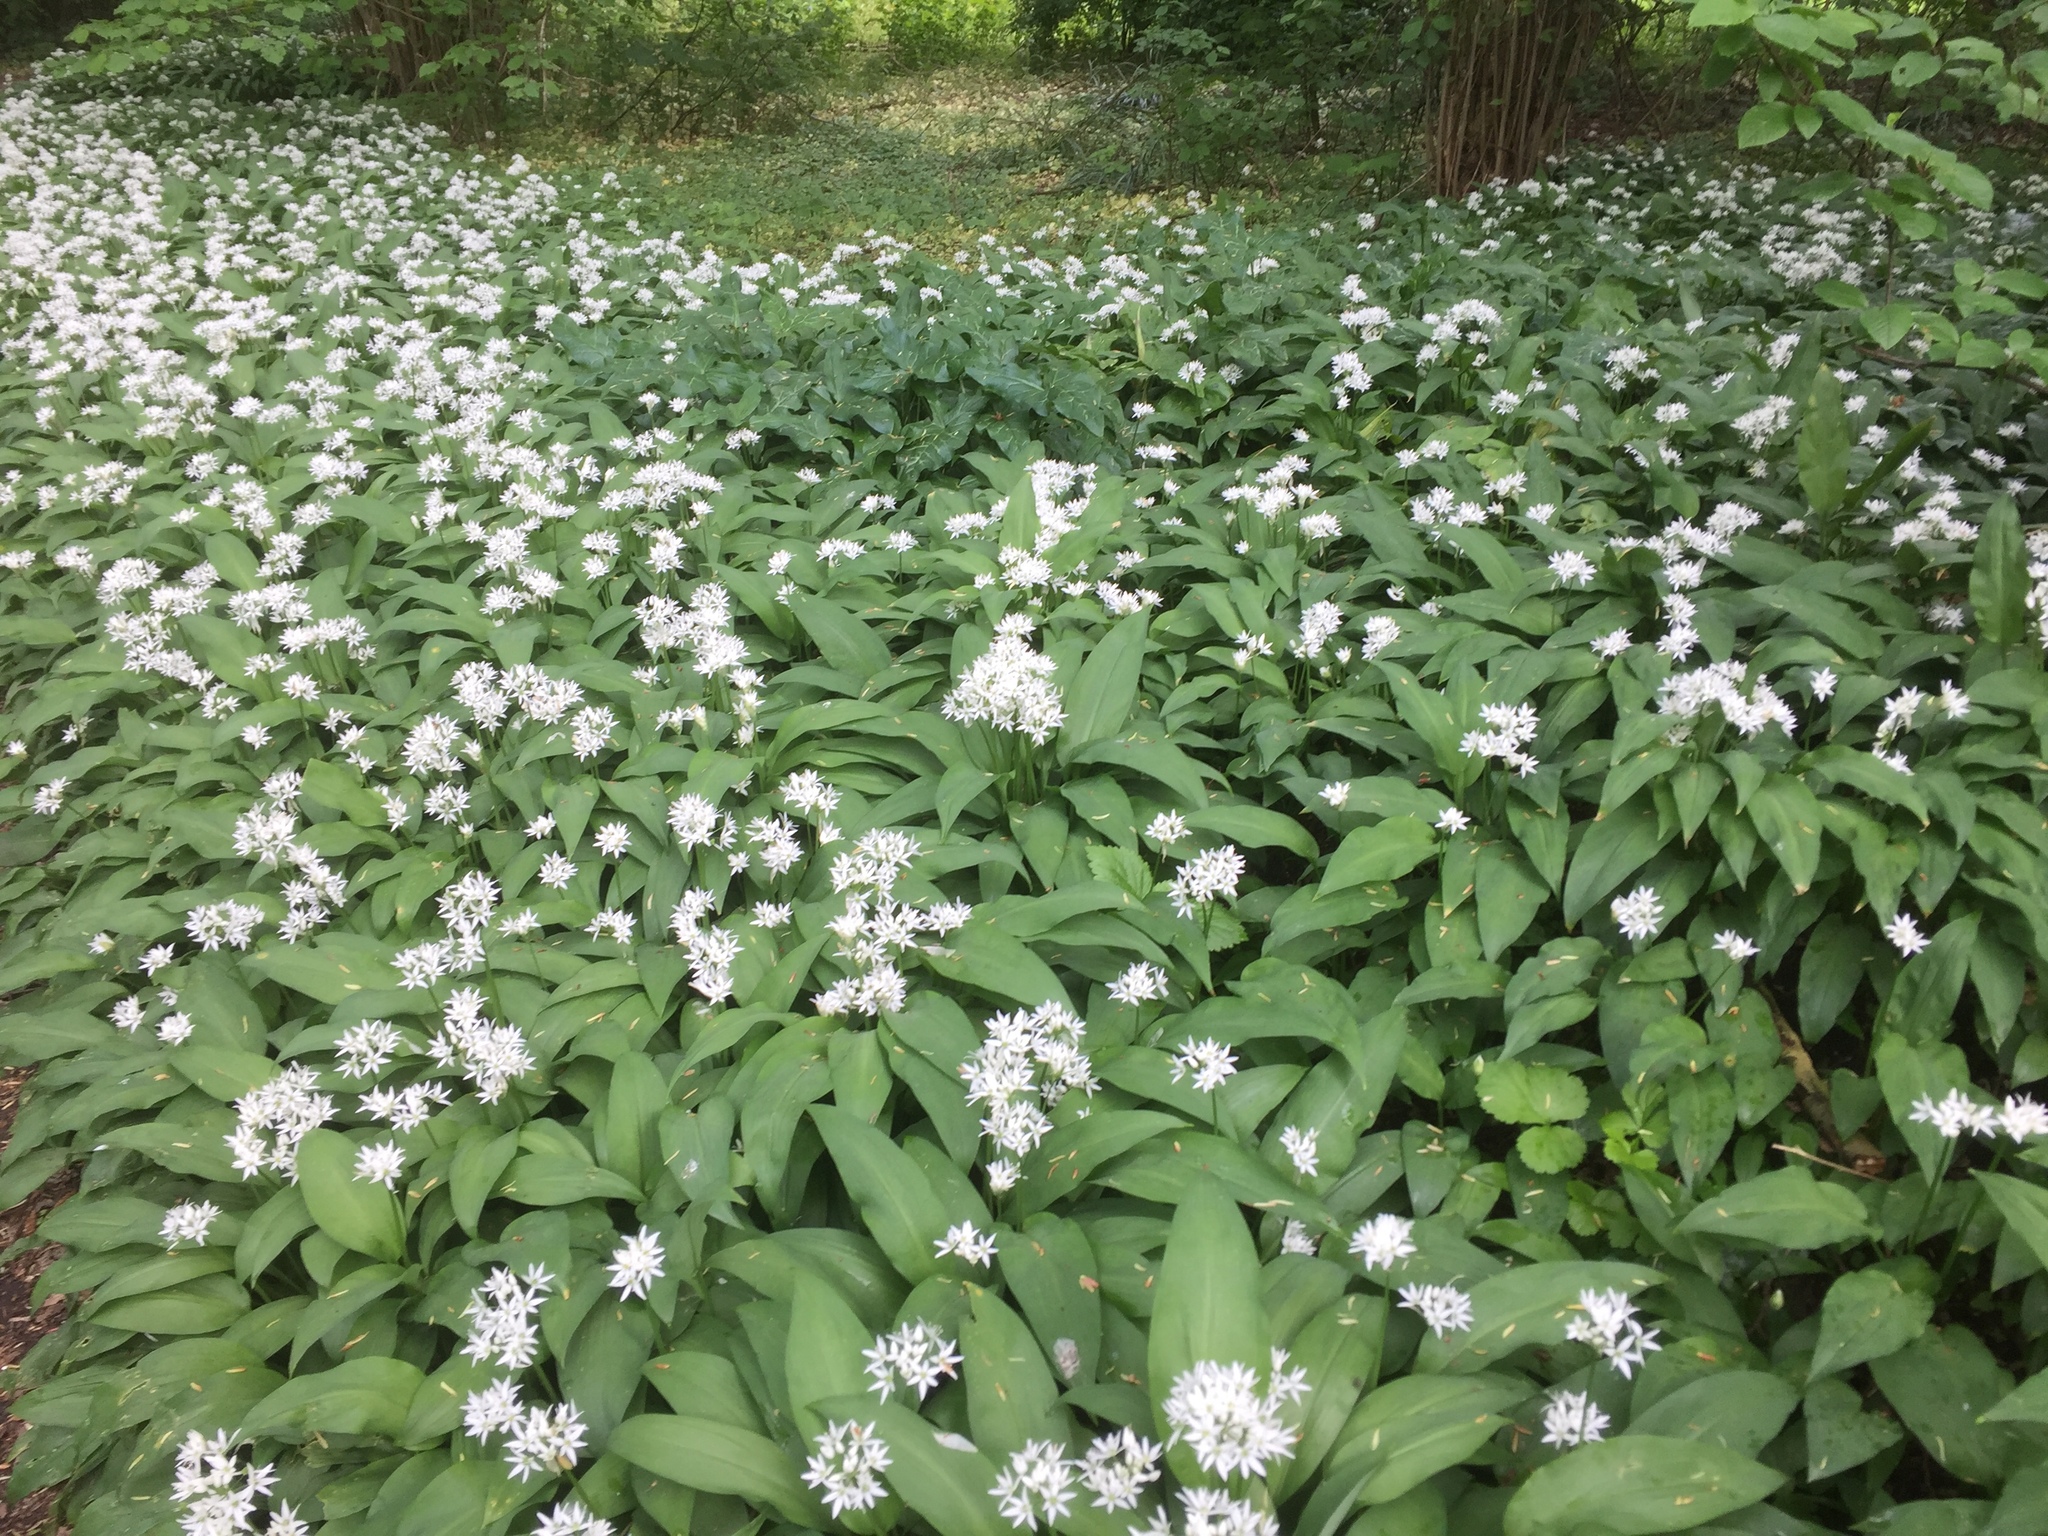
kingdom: Plantae
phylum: Tracheophyta
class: Liliopsida
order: Asparagales
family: Amaryllidaceae
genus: Allium
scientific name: Allium ursinum
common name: Ramsons
